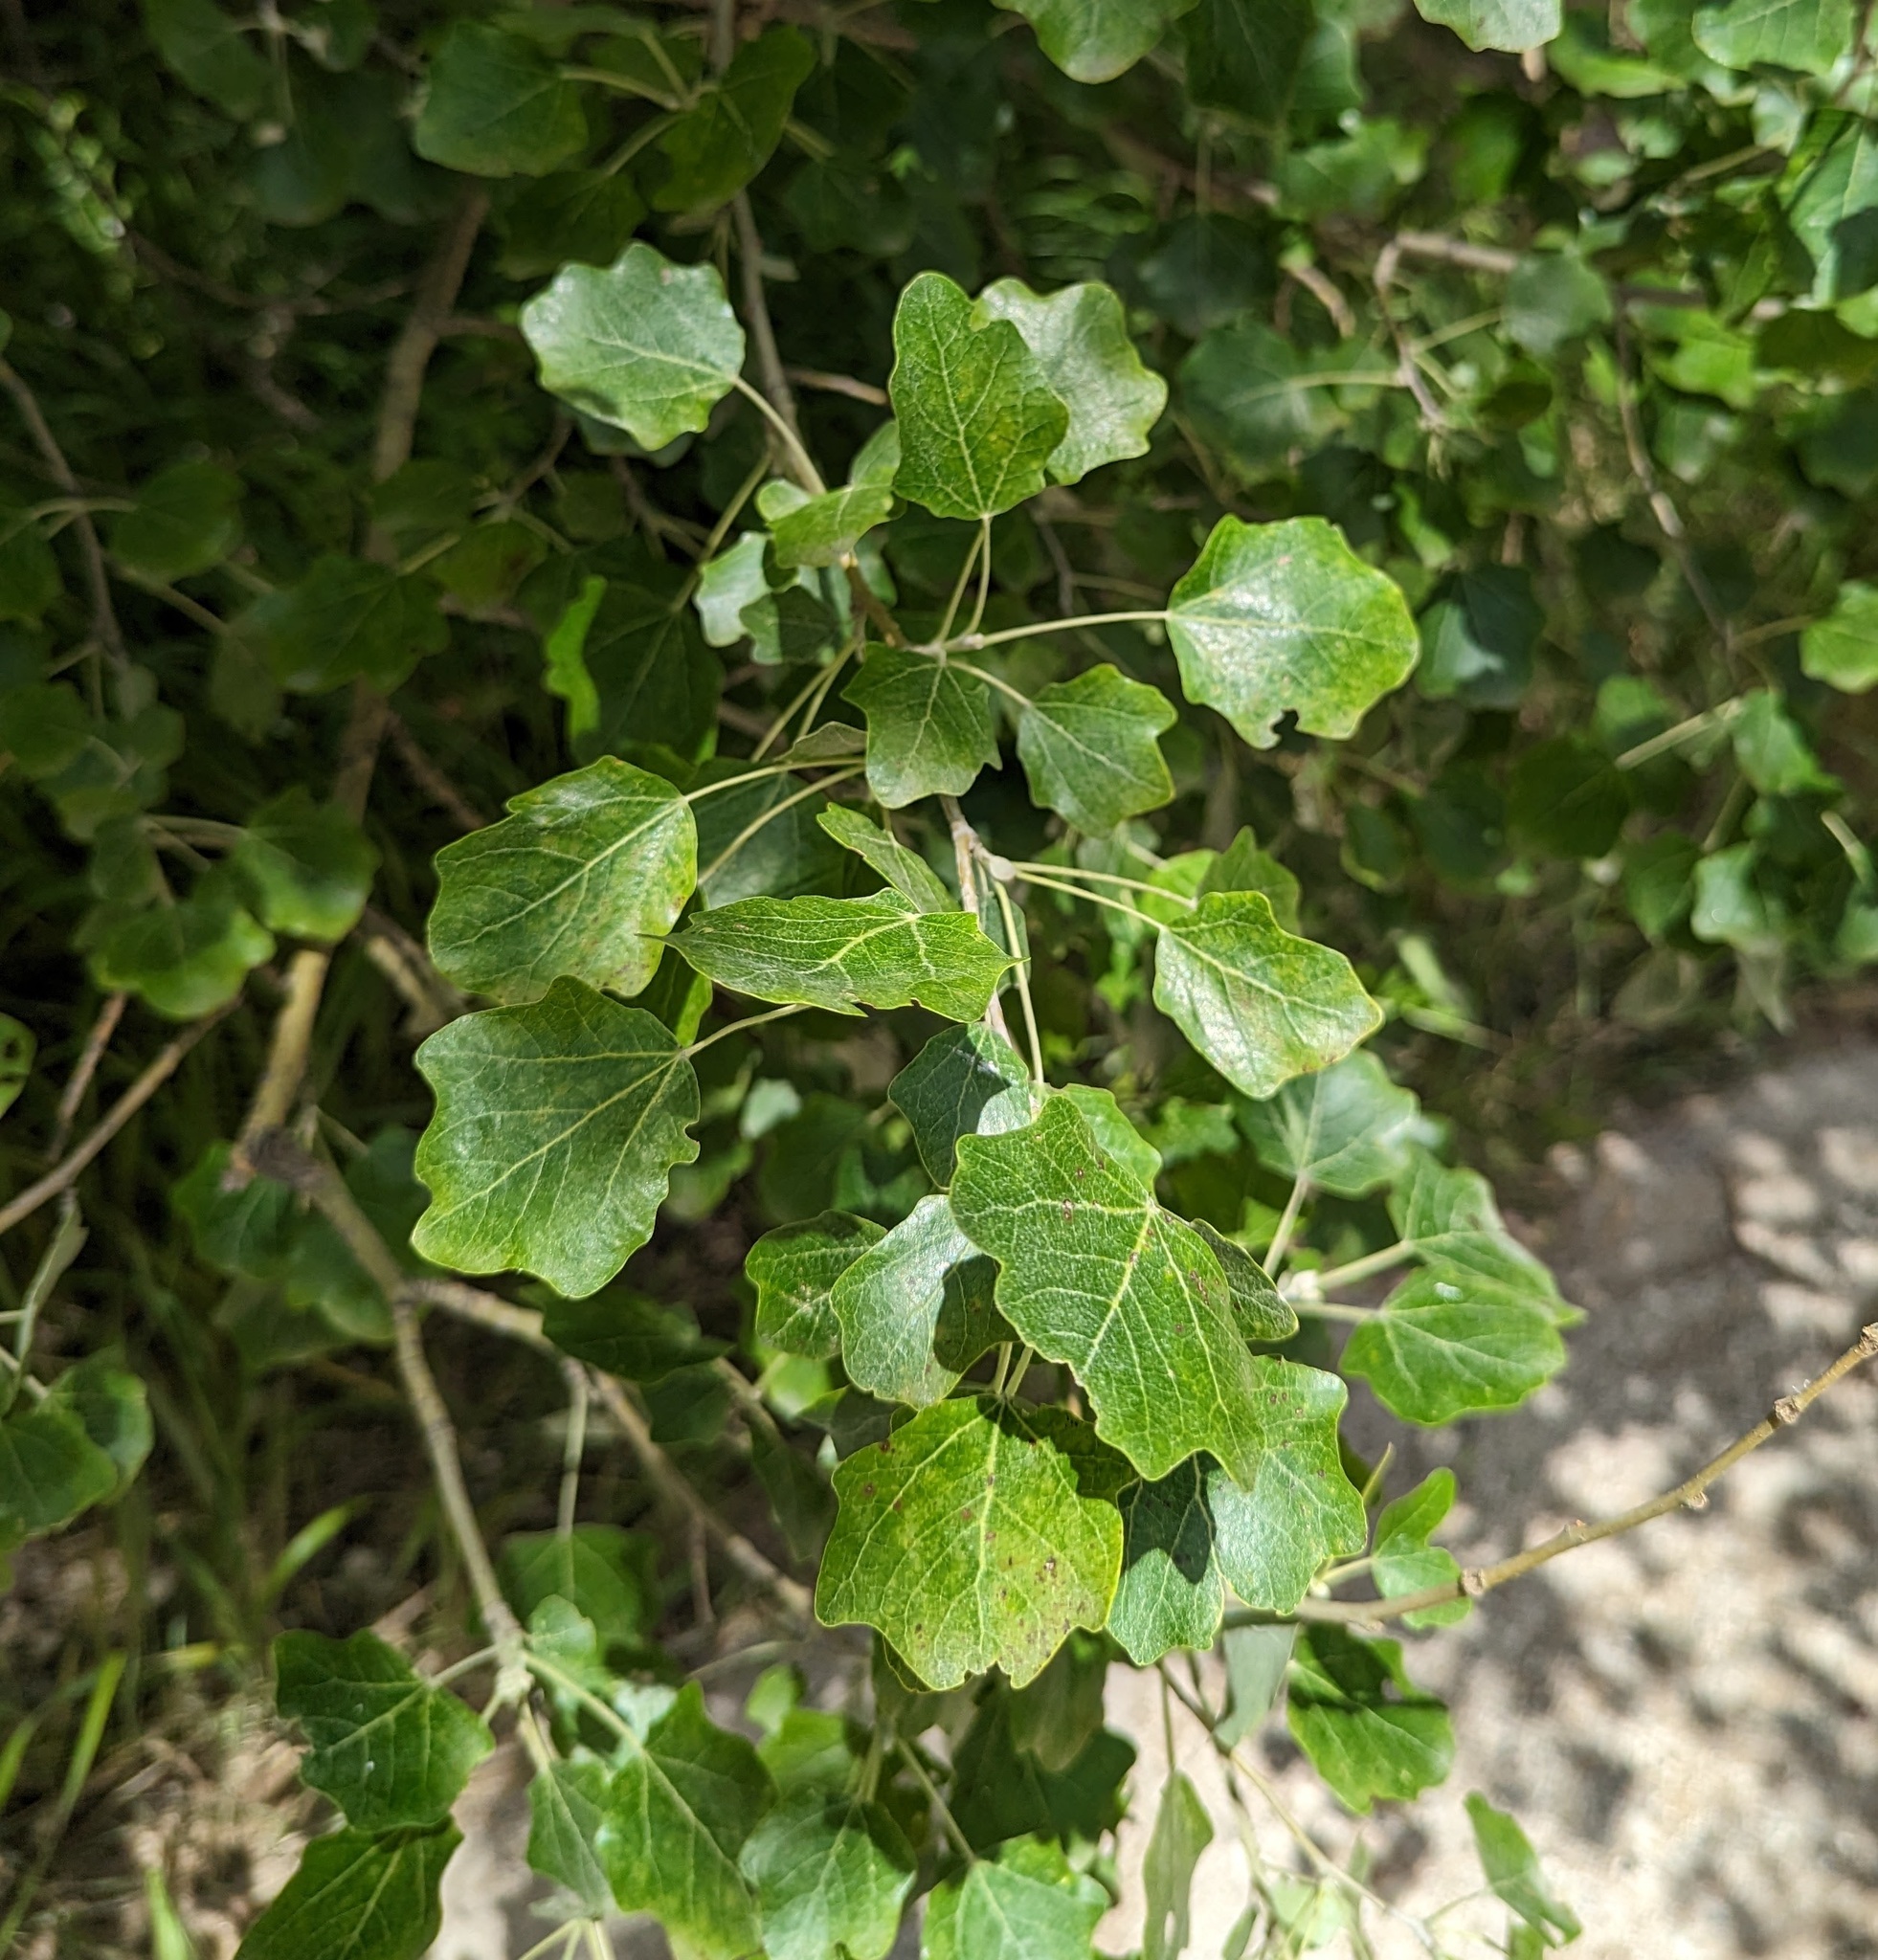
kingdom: Plantae
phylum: Tracheophyta
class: Magnoliopsida
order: Malpighiales
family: Salicaceae
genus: Populus
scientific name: Populus alba
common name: White poplar
